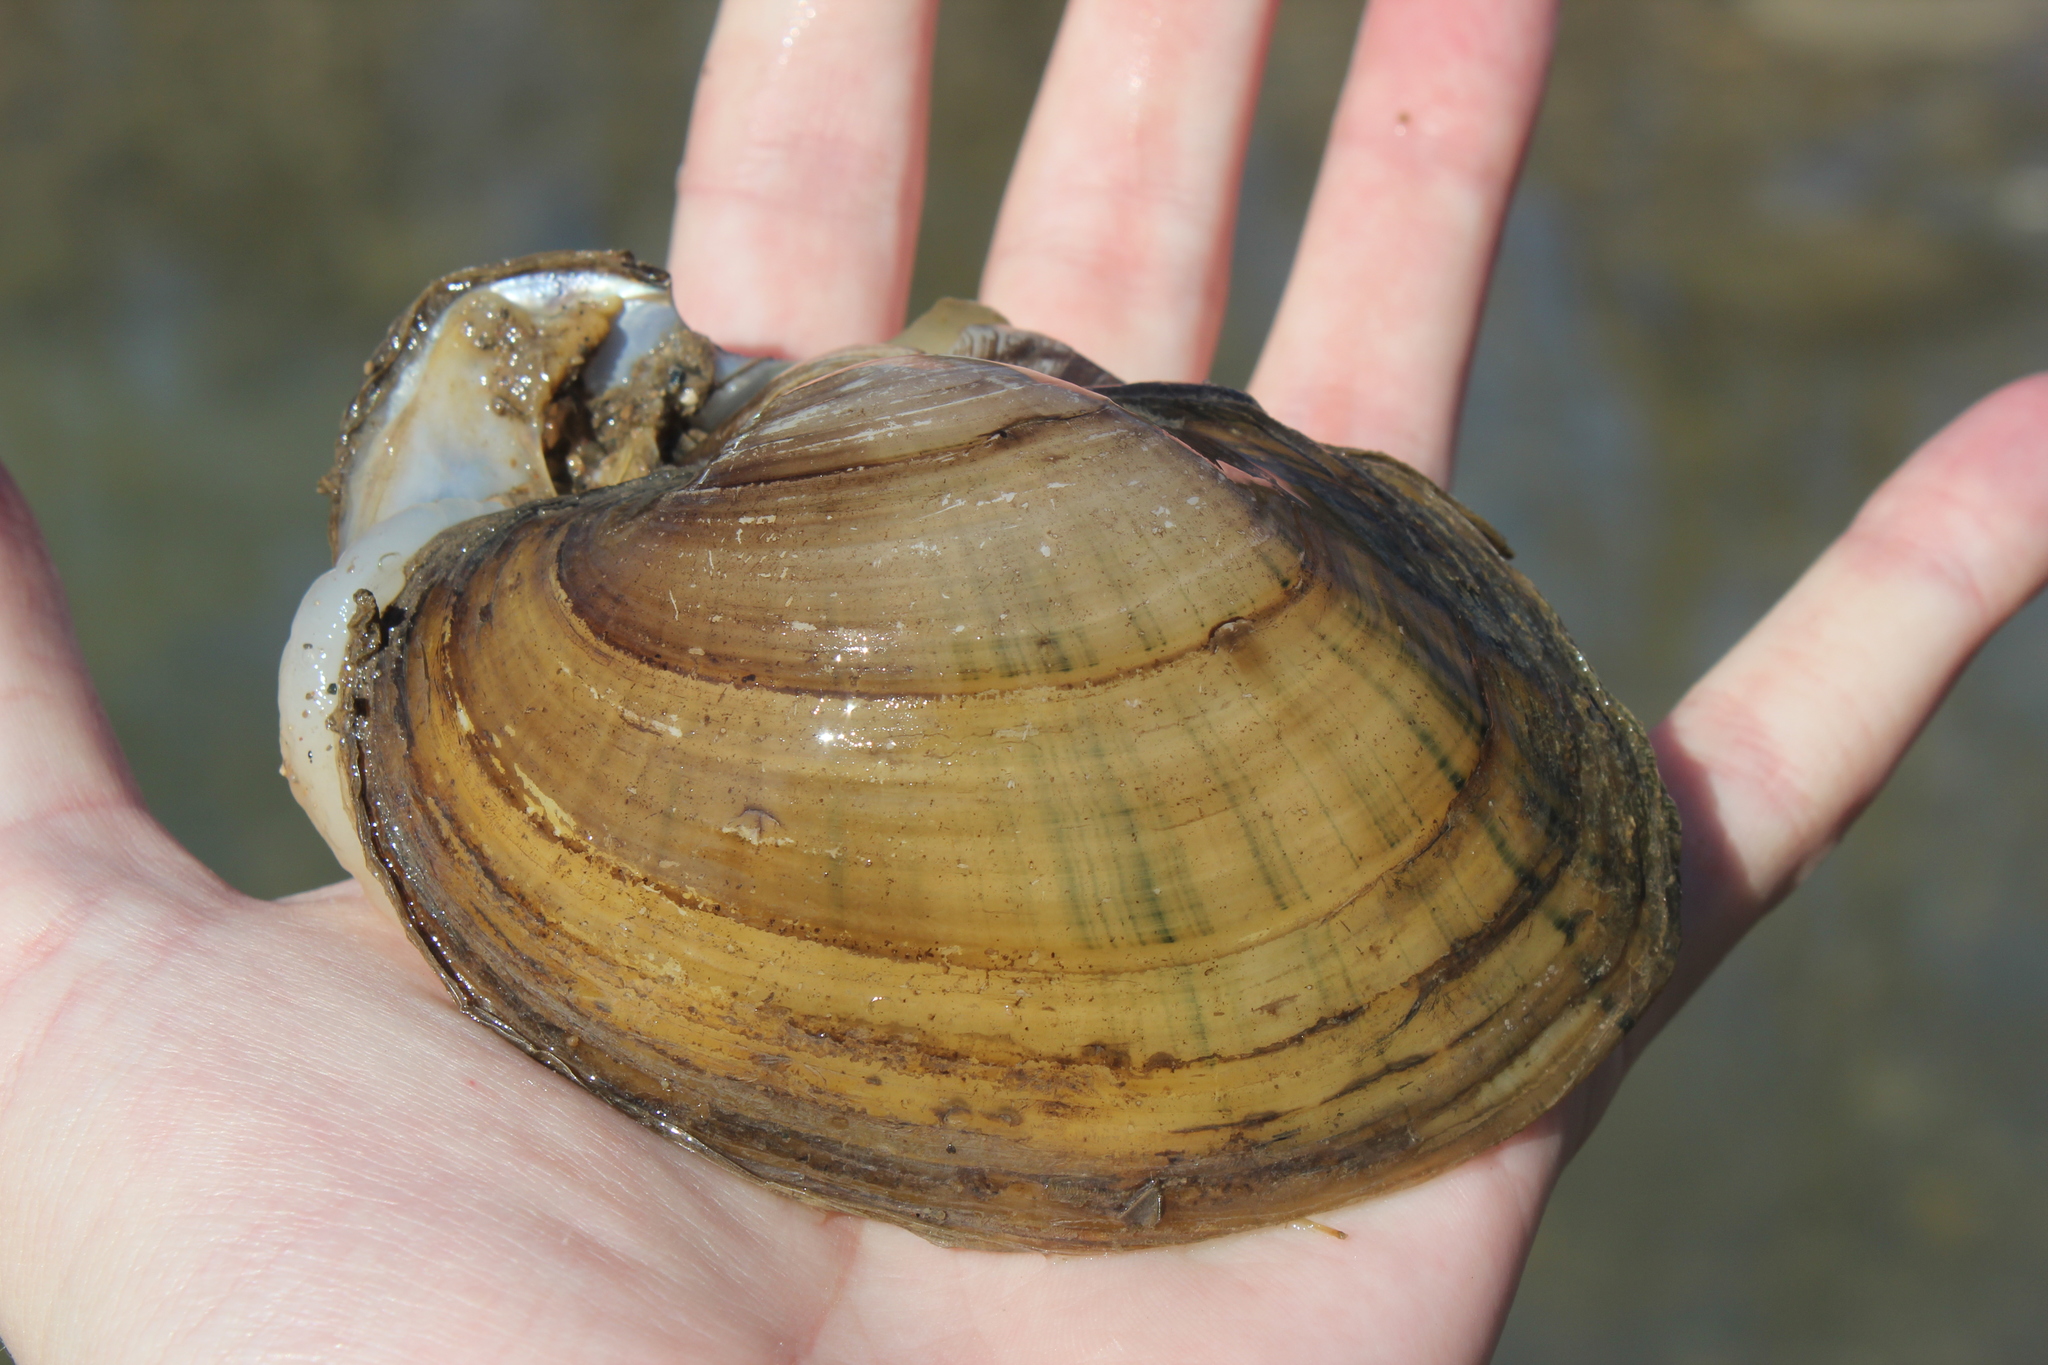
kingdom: Animalia
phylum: Mollusca
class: Bivalvia
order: Unionida
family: Unionidae
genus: Lampsilis
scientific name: Lampsilis cardium
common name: Plain pocketbook
